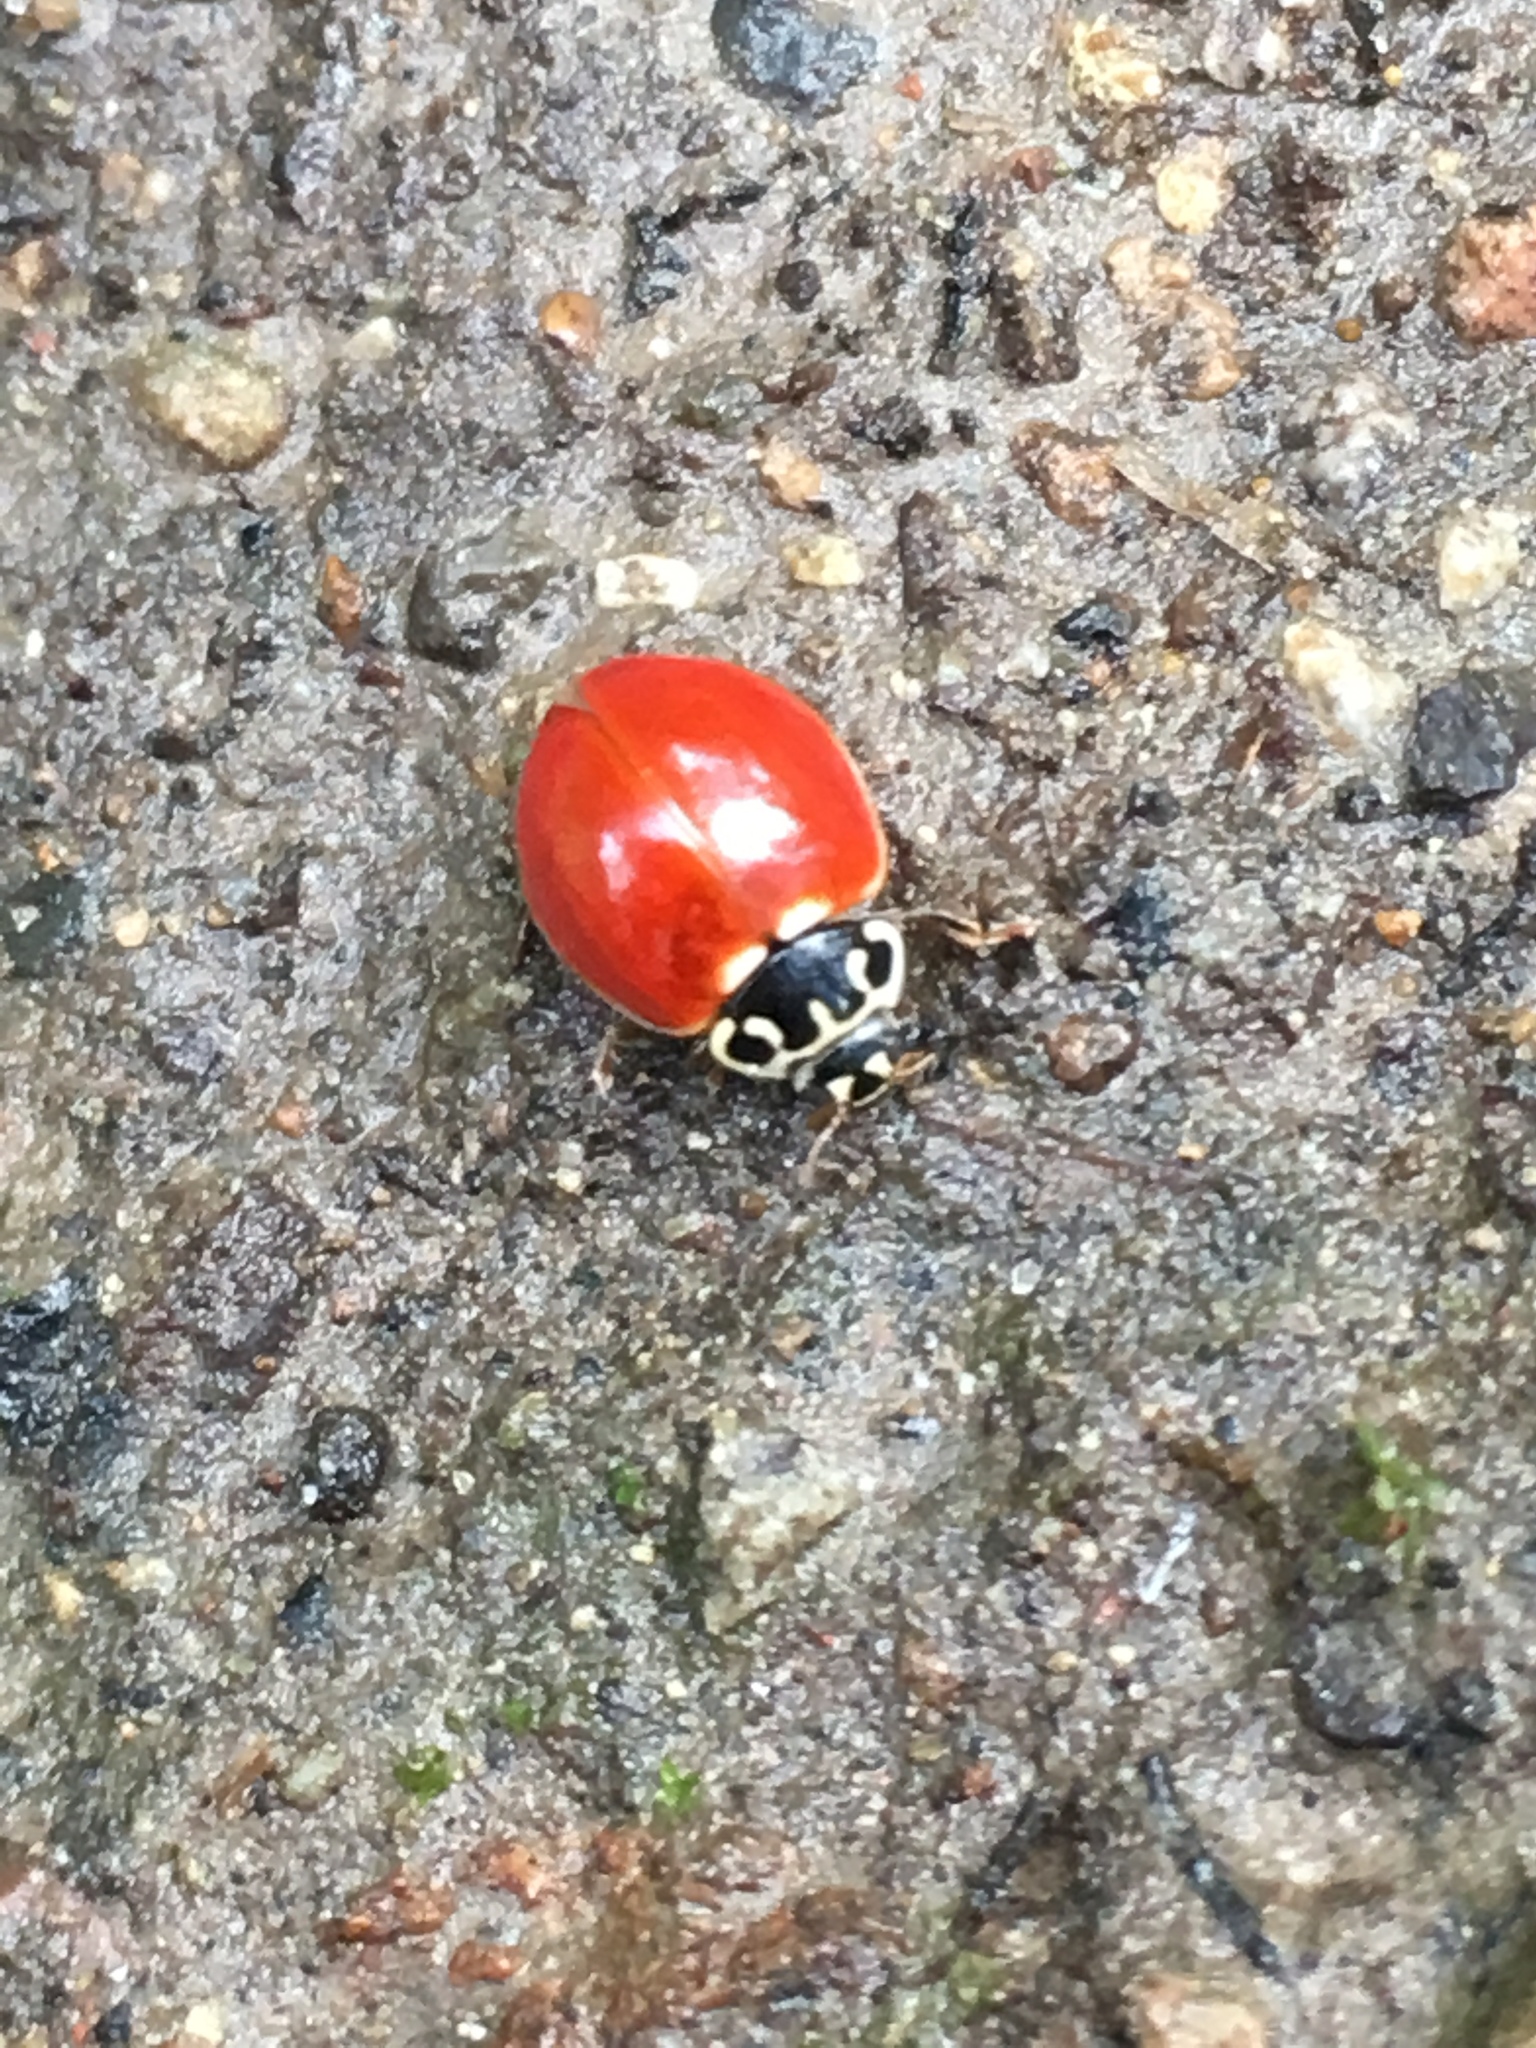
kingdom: Animalia
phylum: Arthropoda
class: Insecta
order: Coleoptera
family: Coccinellidae
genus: Cycloneda
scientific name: Cycloneda polita
